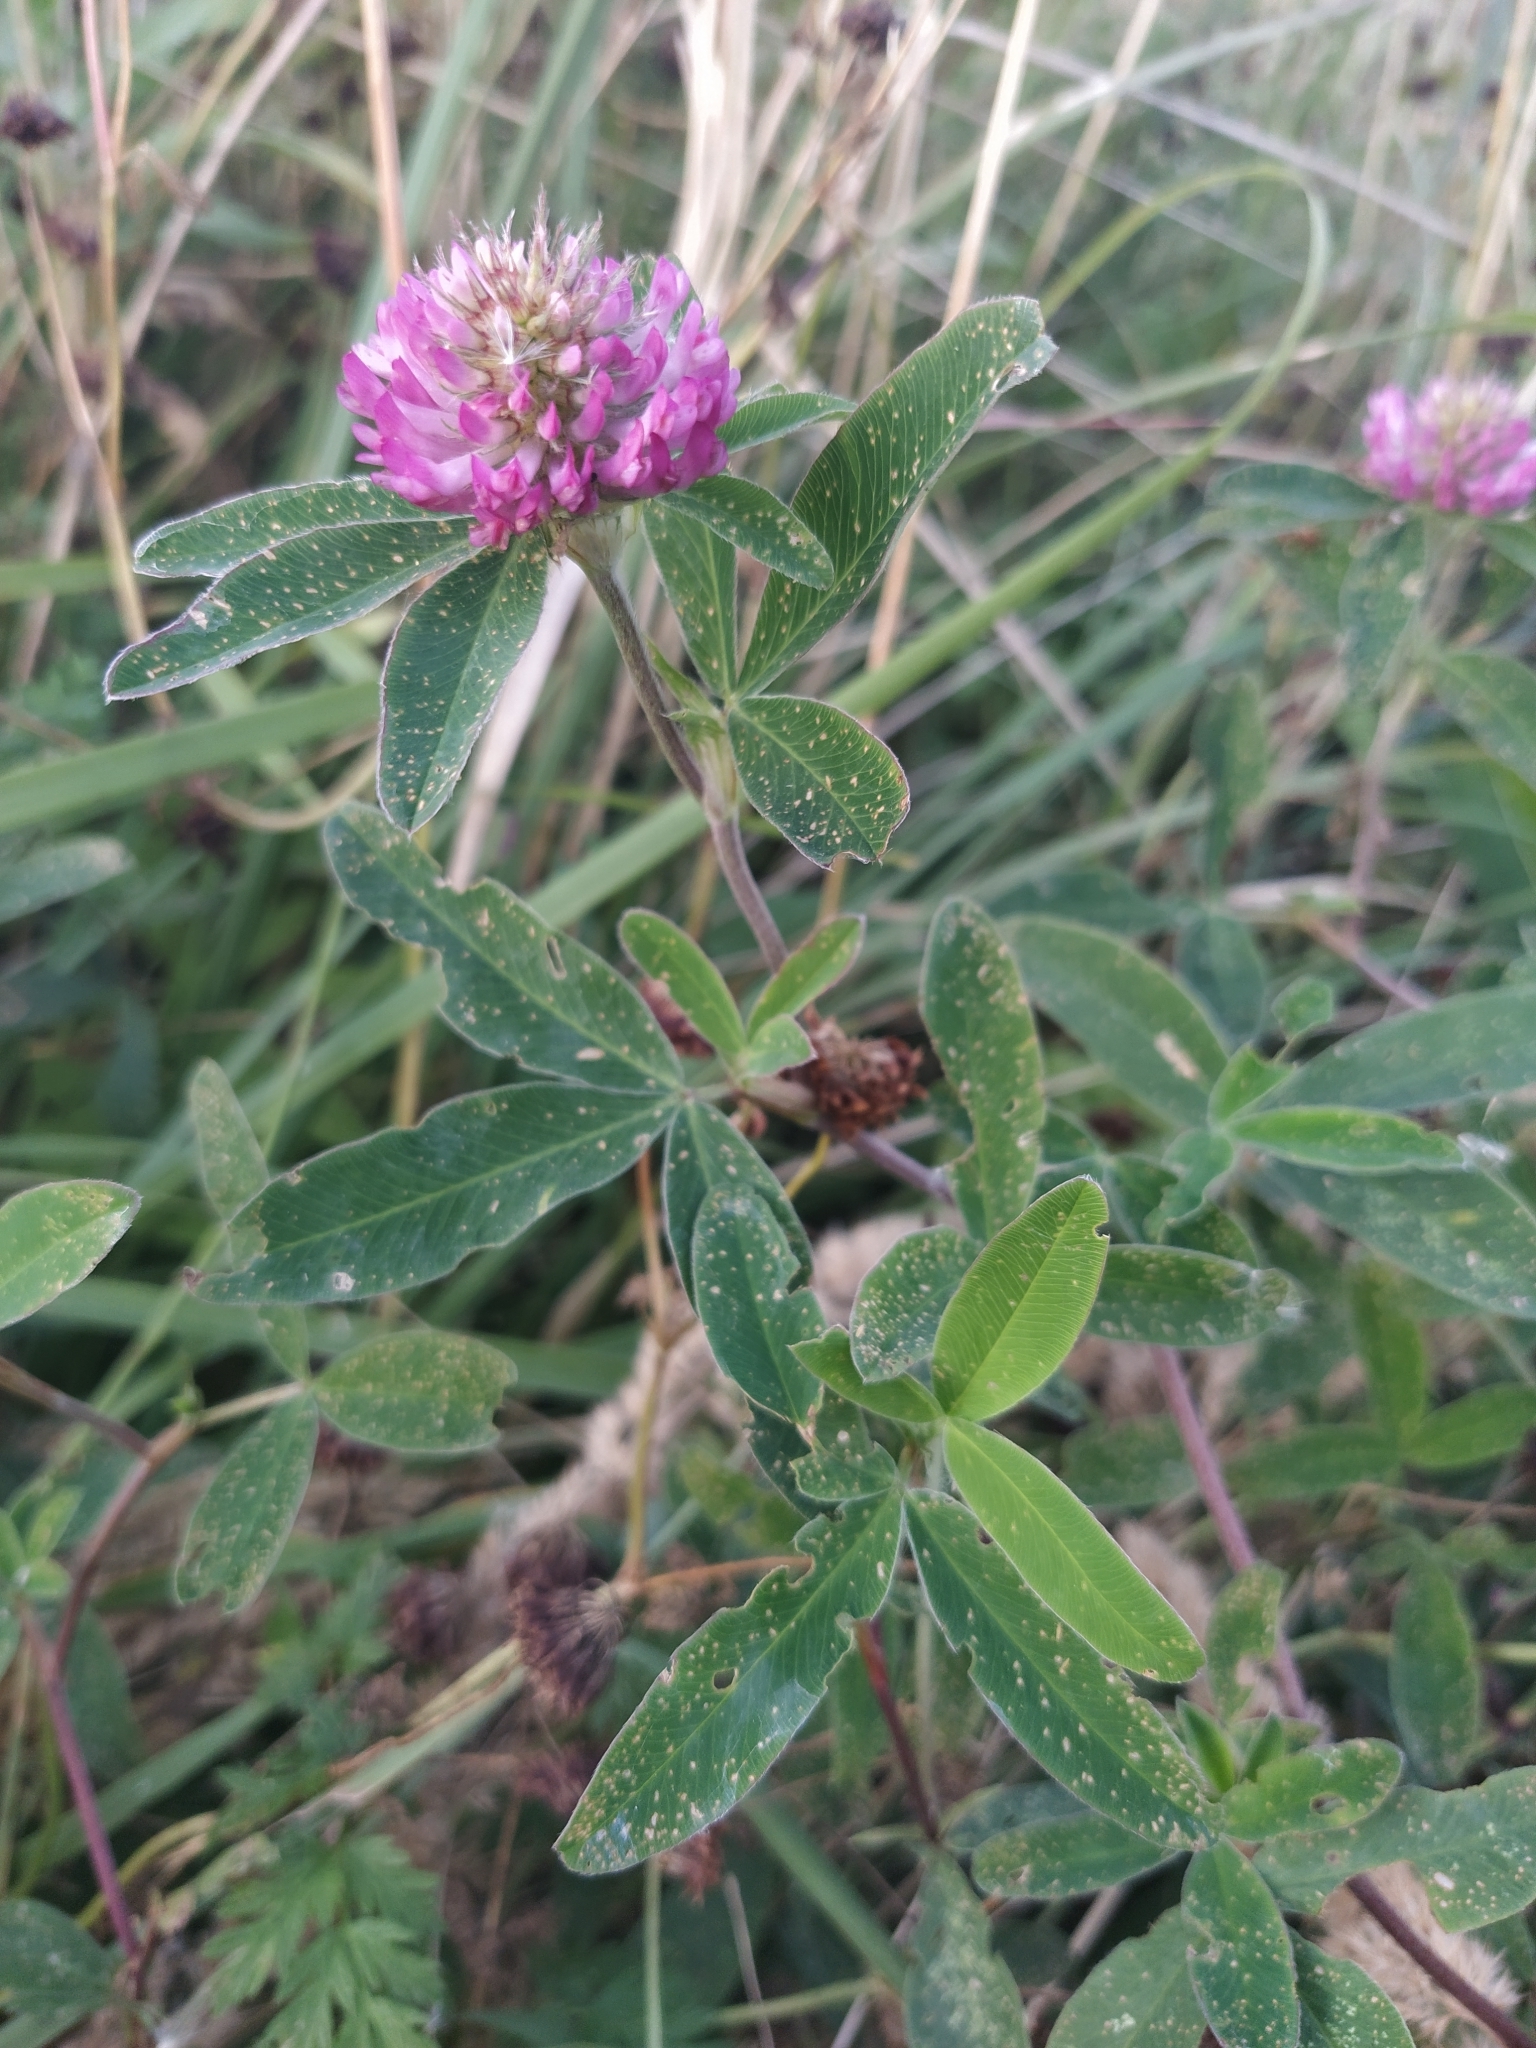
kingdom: Plantae
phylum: Tracheophyta
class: Magnoliopsida
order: Fabales
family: Fabaceae
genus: Trifolium
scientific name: Trifolium medium
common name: Zigzag clover
